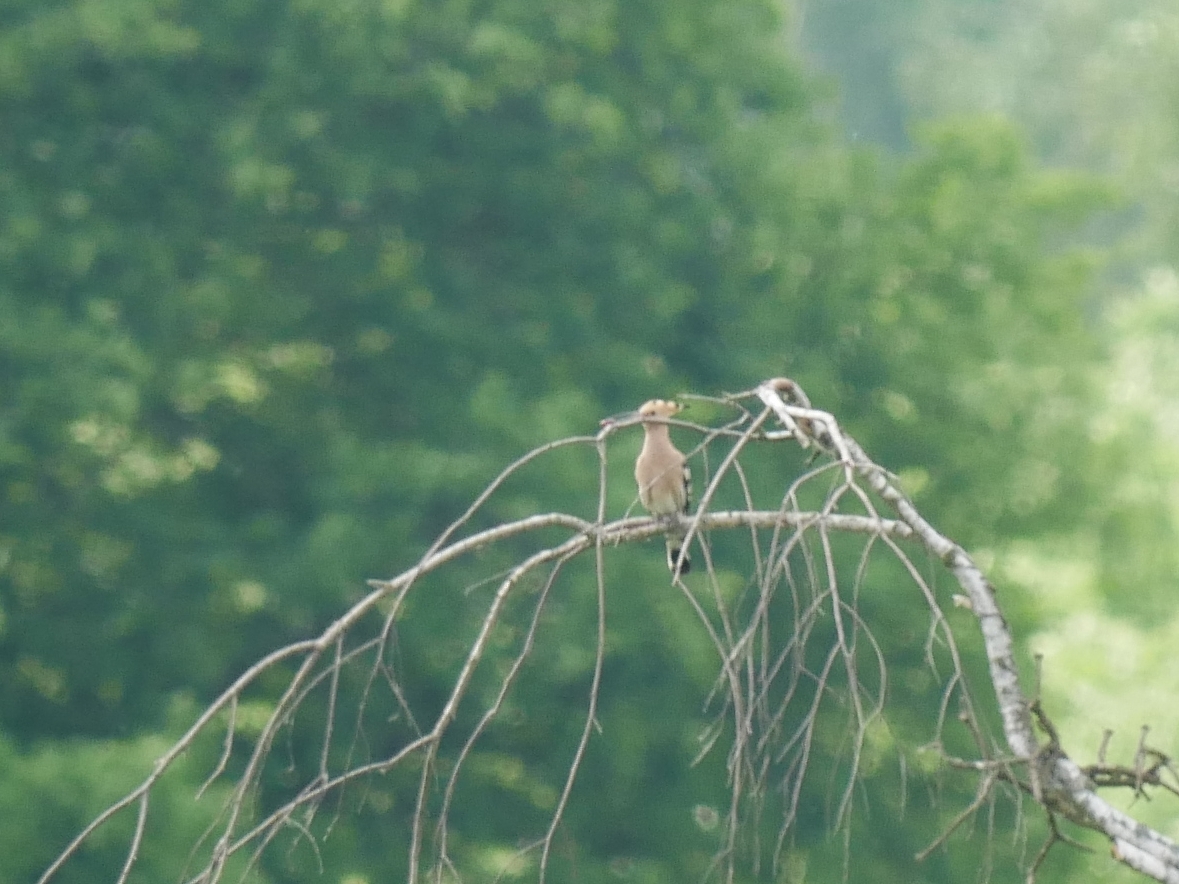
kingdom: Animalia
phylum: Chordata
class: Aves
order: Bucerotiformes
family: Upupidae
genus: Upupa
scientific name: Upupa epops
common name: Eurasian hoopoe
